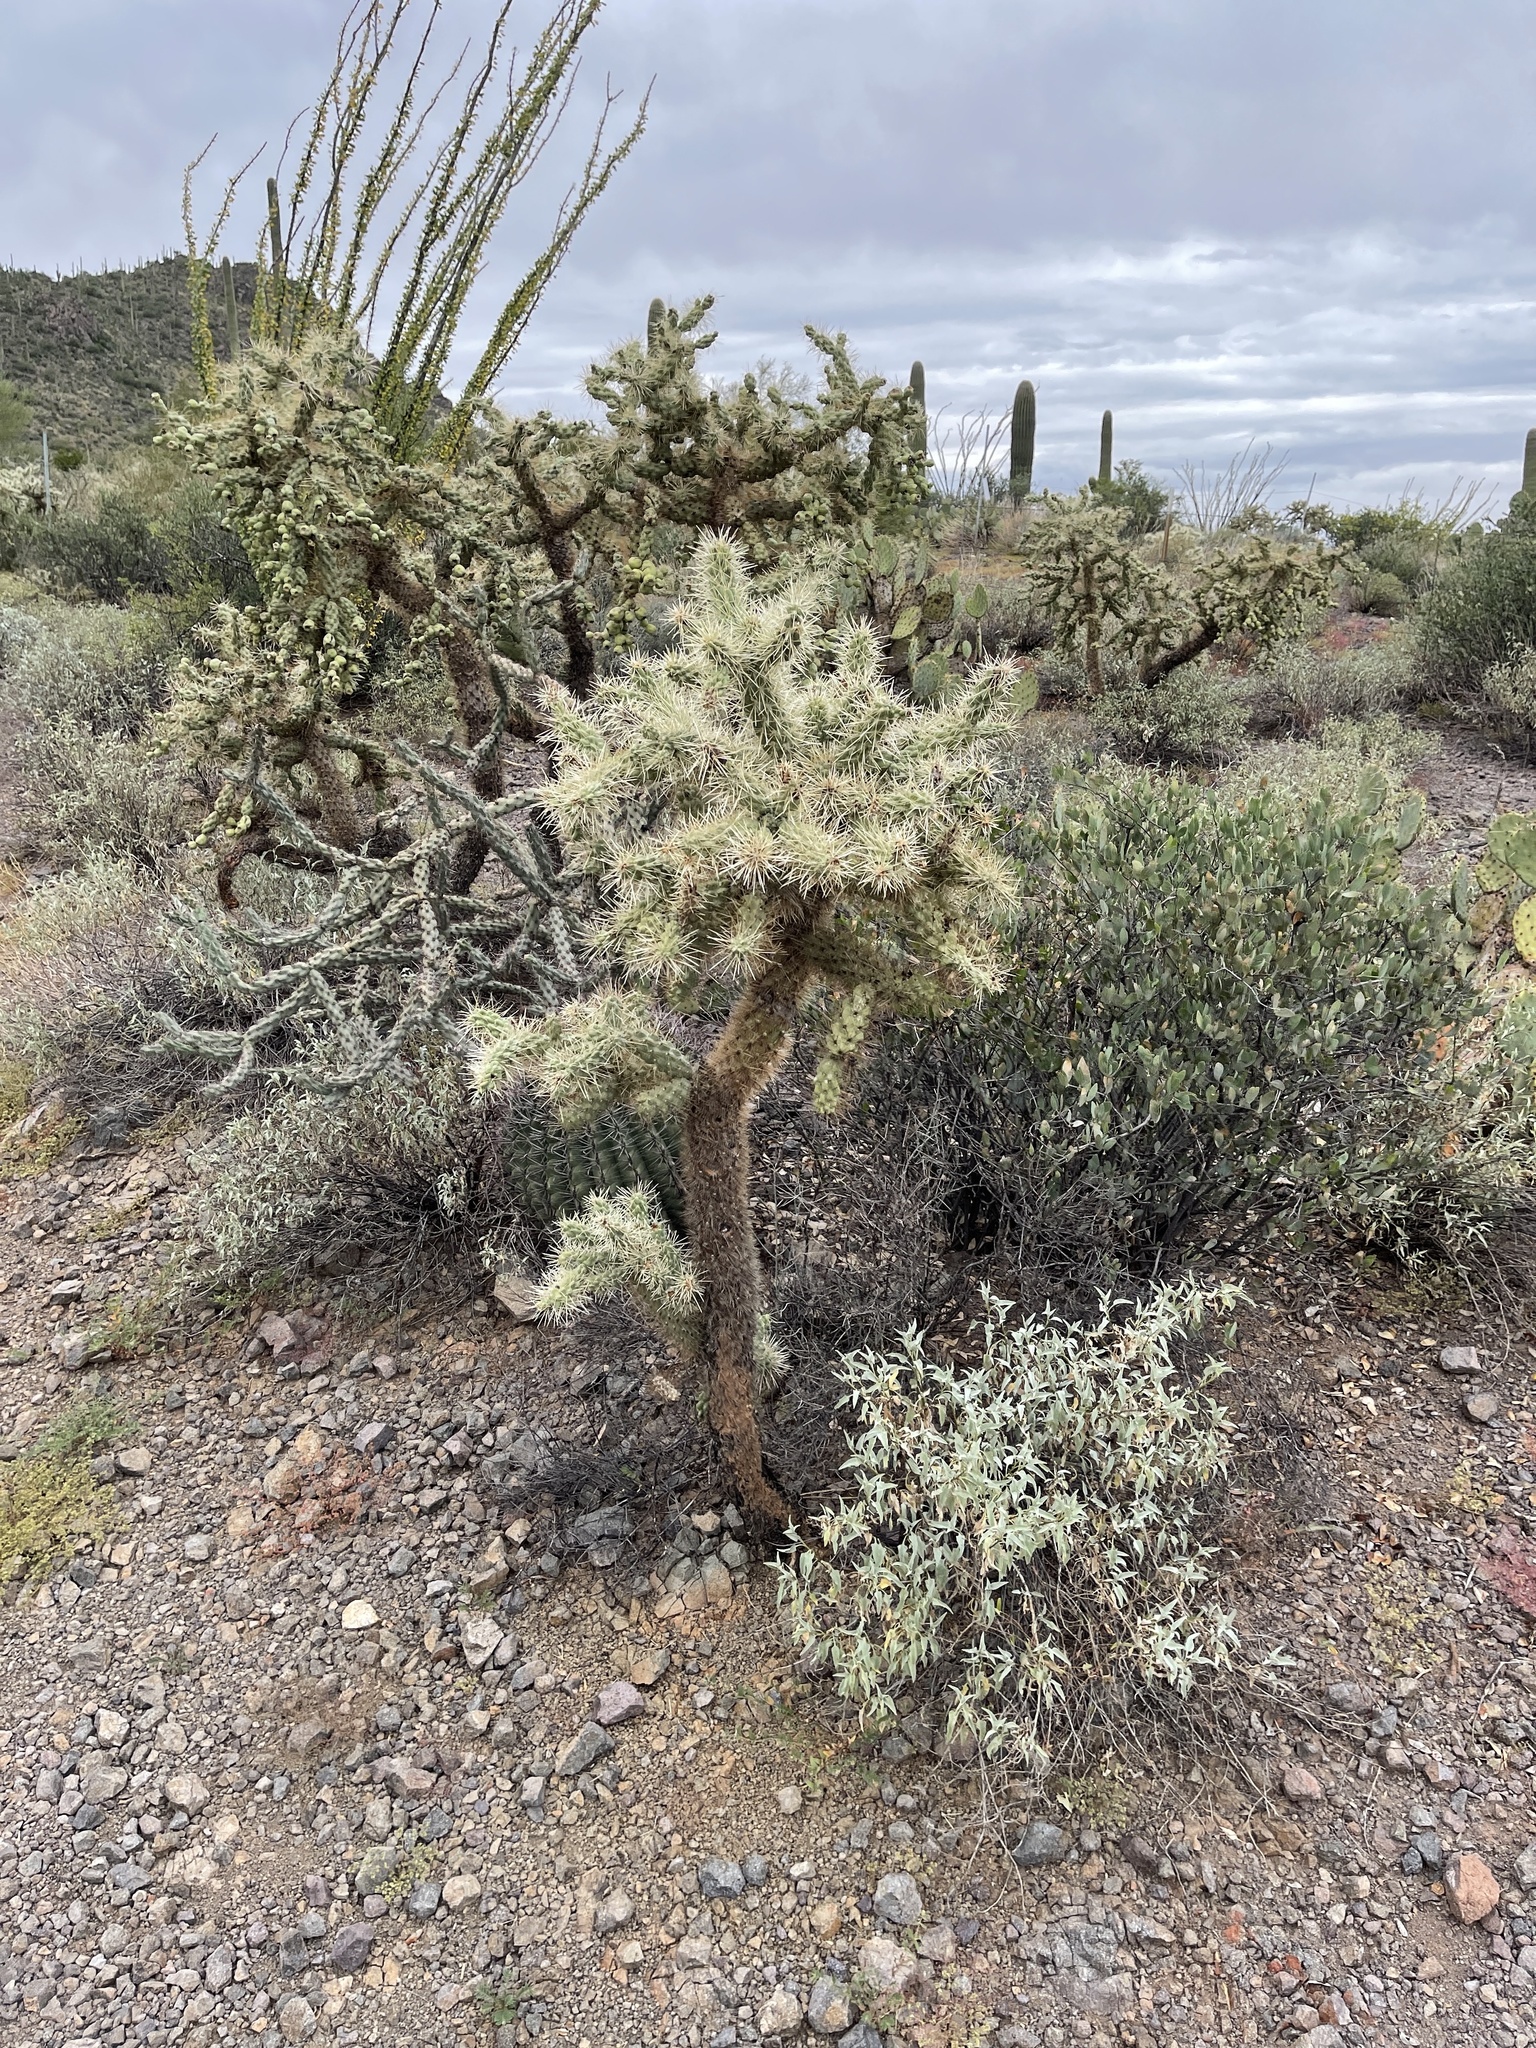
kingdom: Plantae
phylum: Tracheophyta
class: Magnoliopsida
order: Caryophyllales
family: Cactaceae
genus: Cylindropuntia
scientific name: Cylindropuntia fulgida
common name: Jumping cholla
